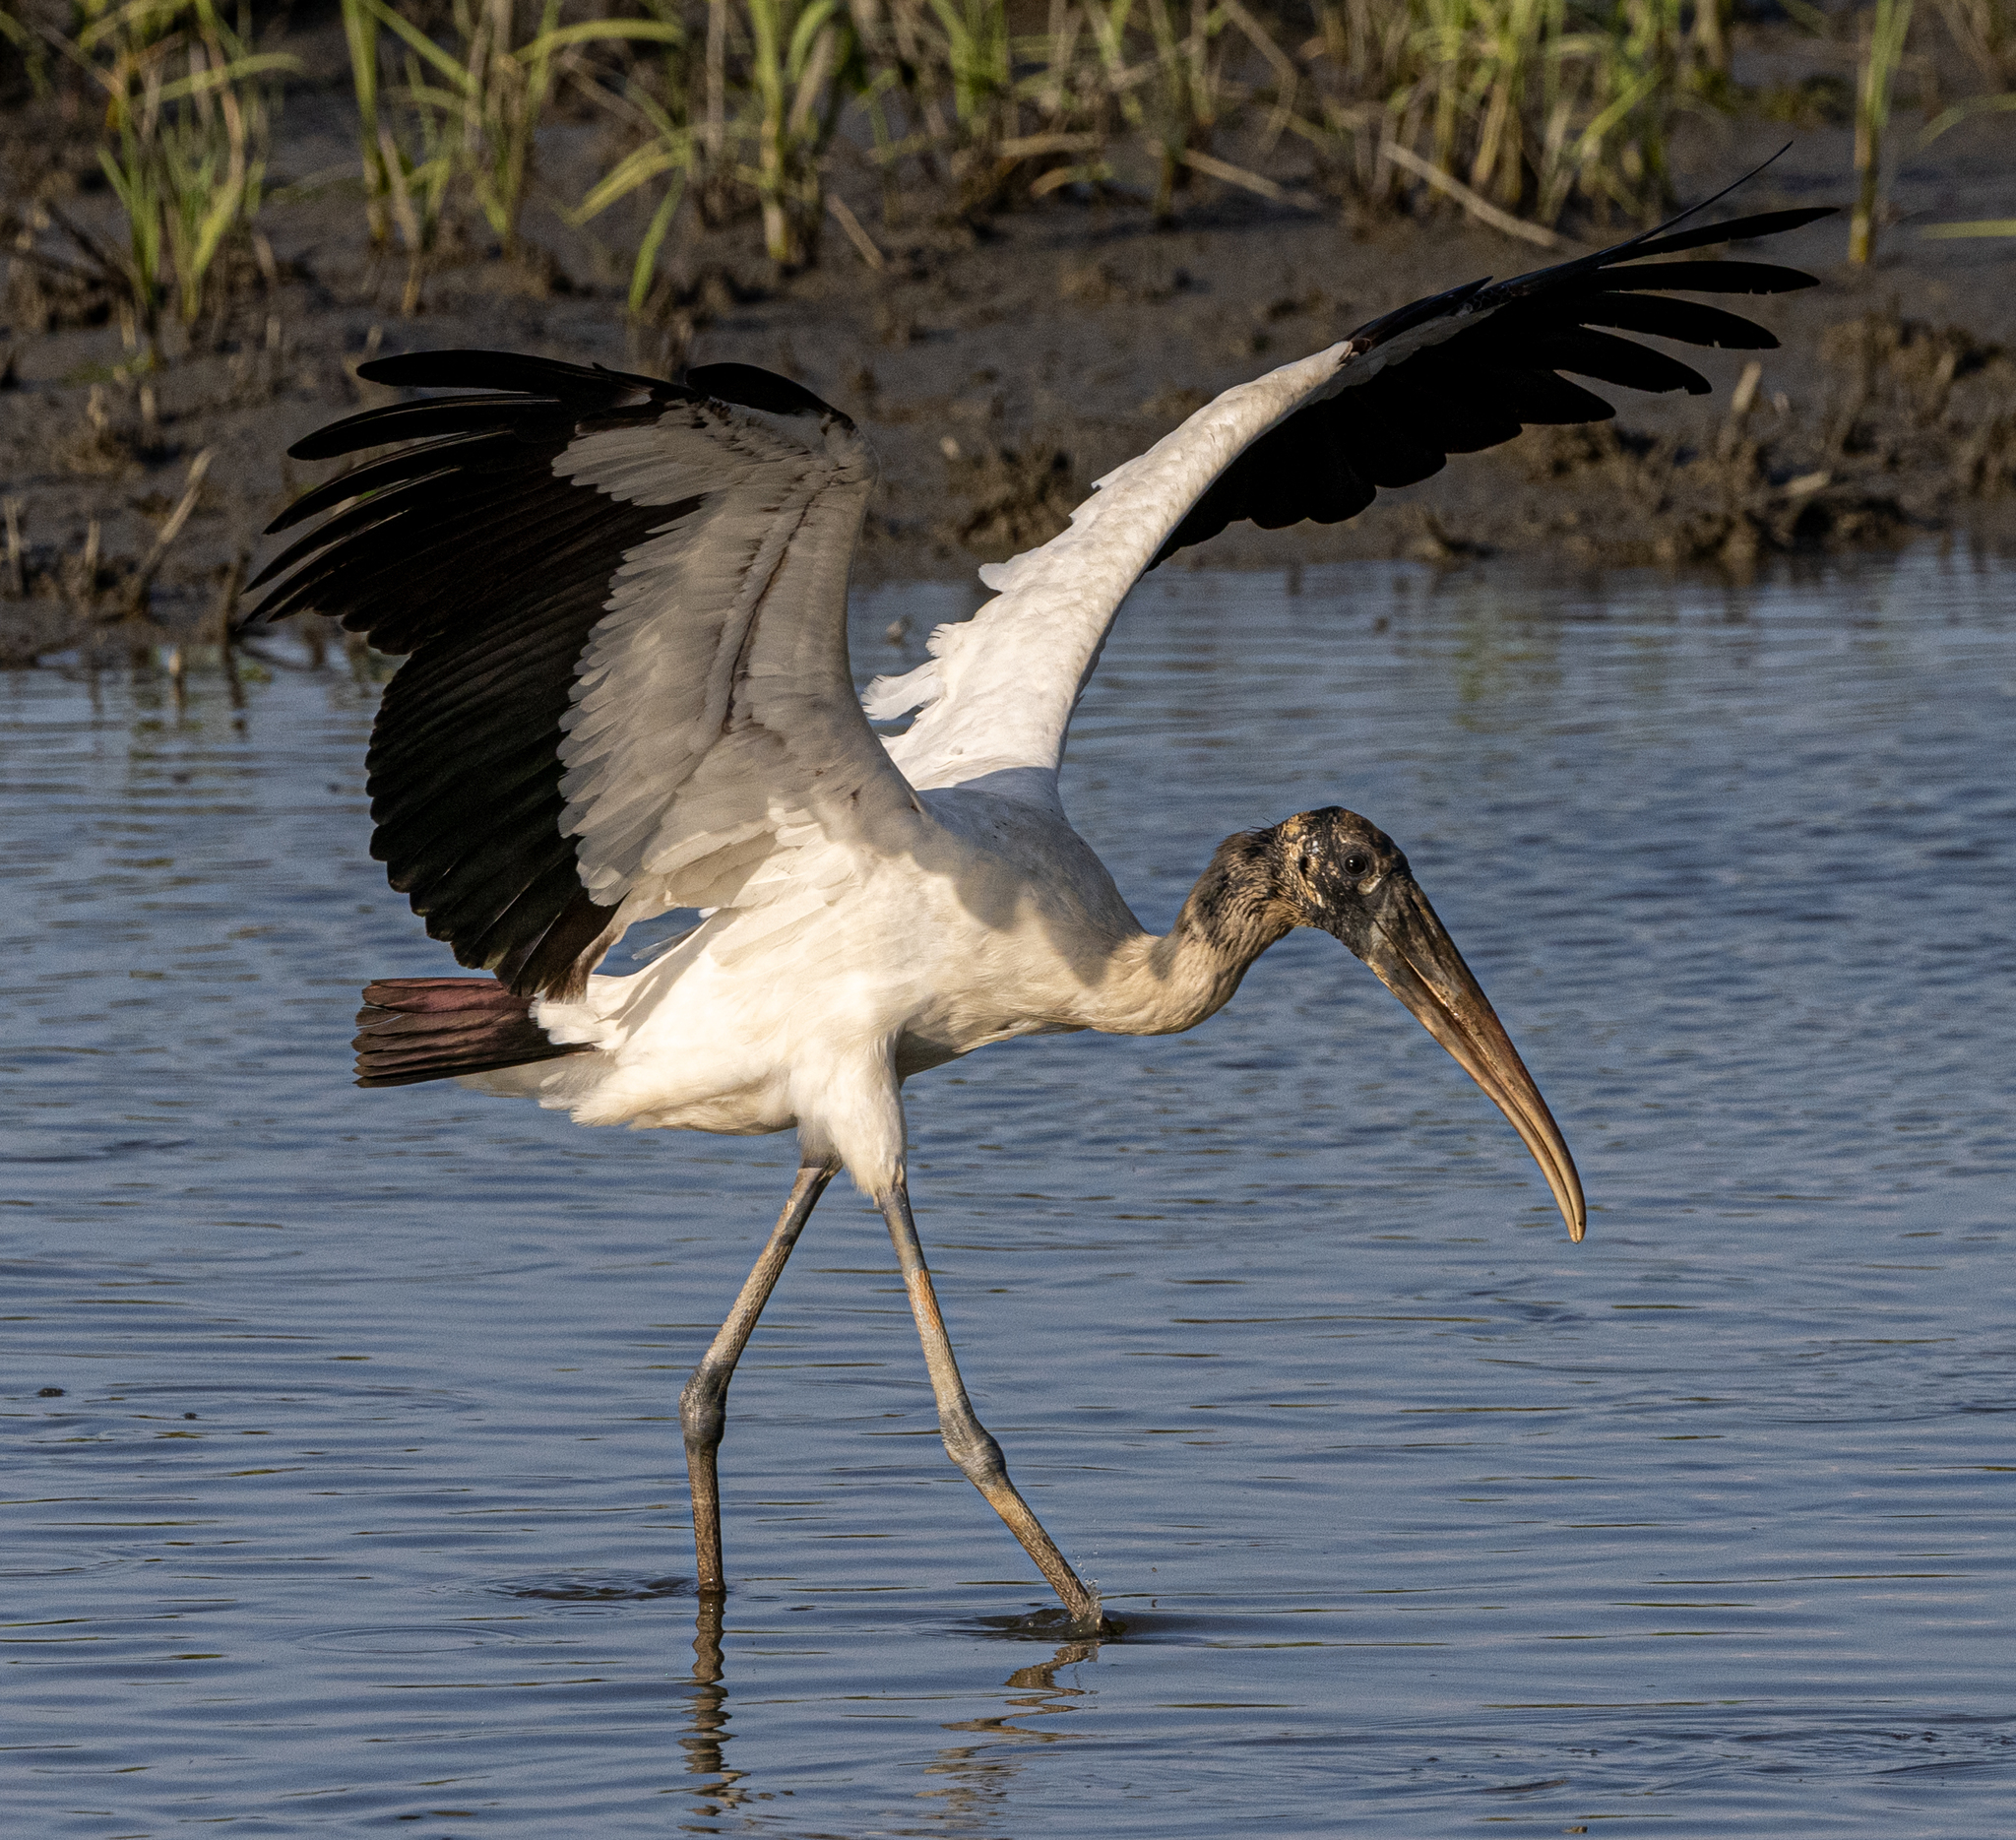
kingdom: Animalia
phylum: Chordata
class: Aves
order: Ciconiiformes
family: Ciconiidae
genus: Mycteria
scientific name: Mycteria americana
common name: Wood stork
